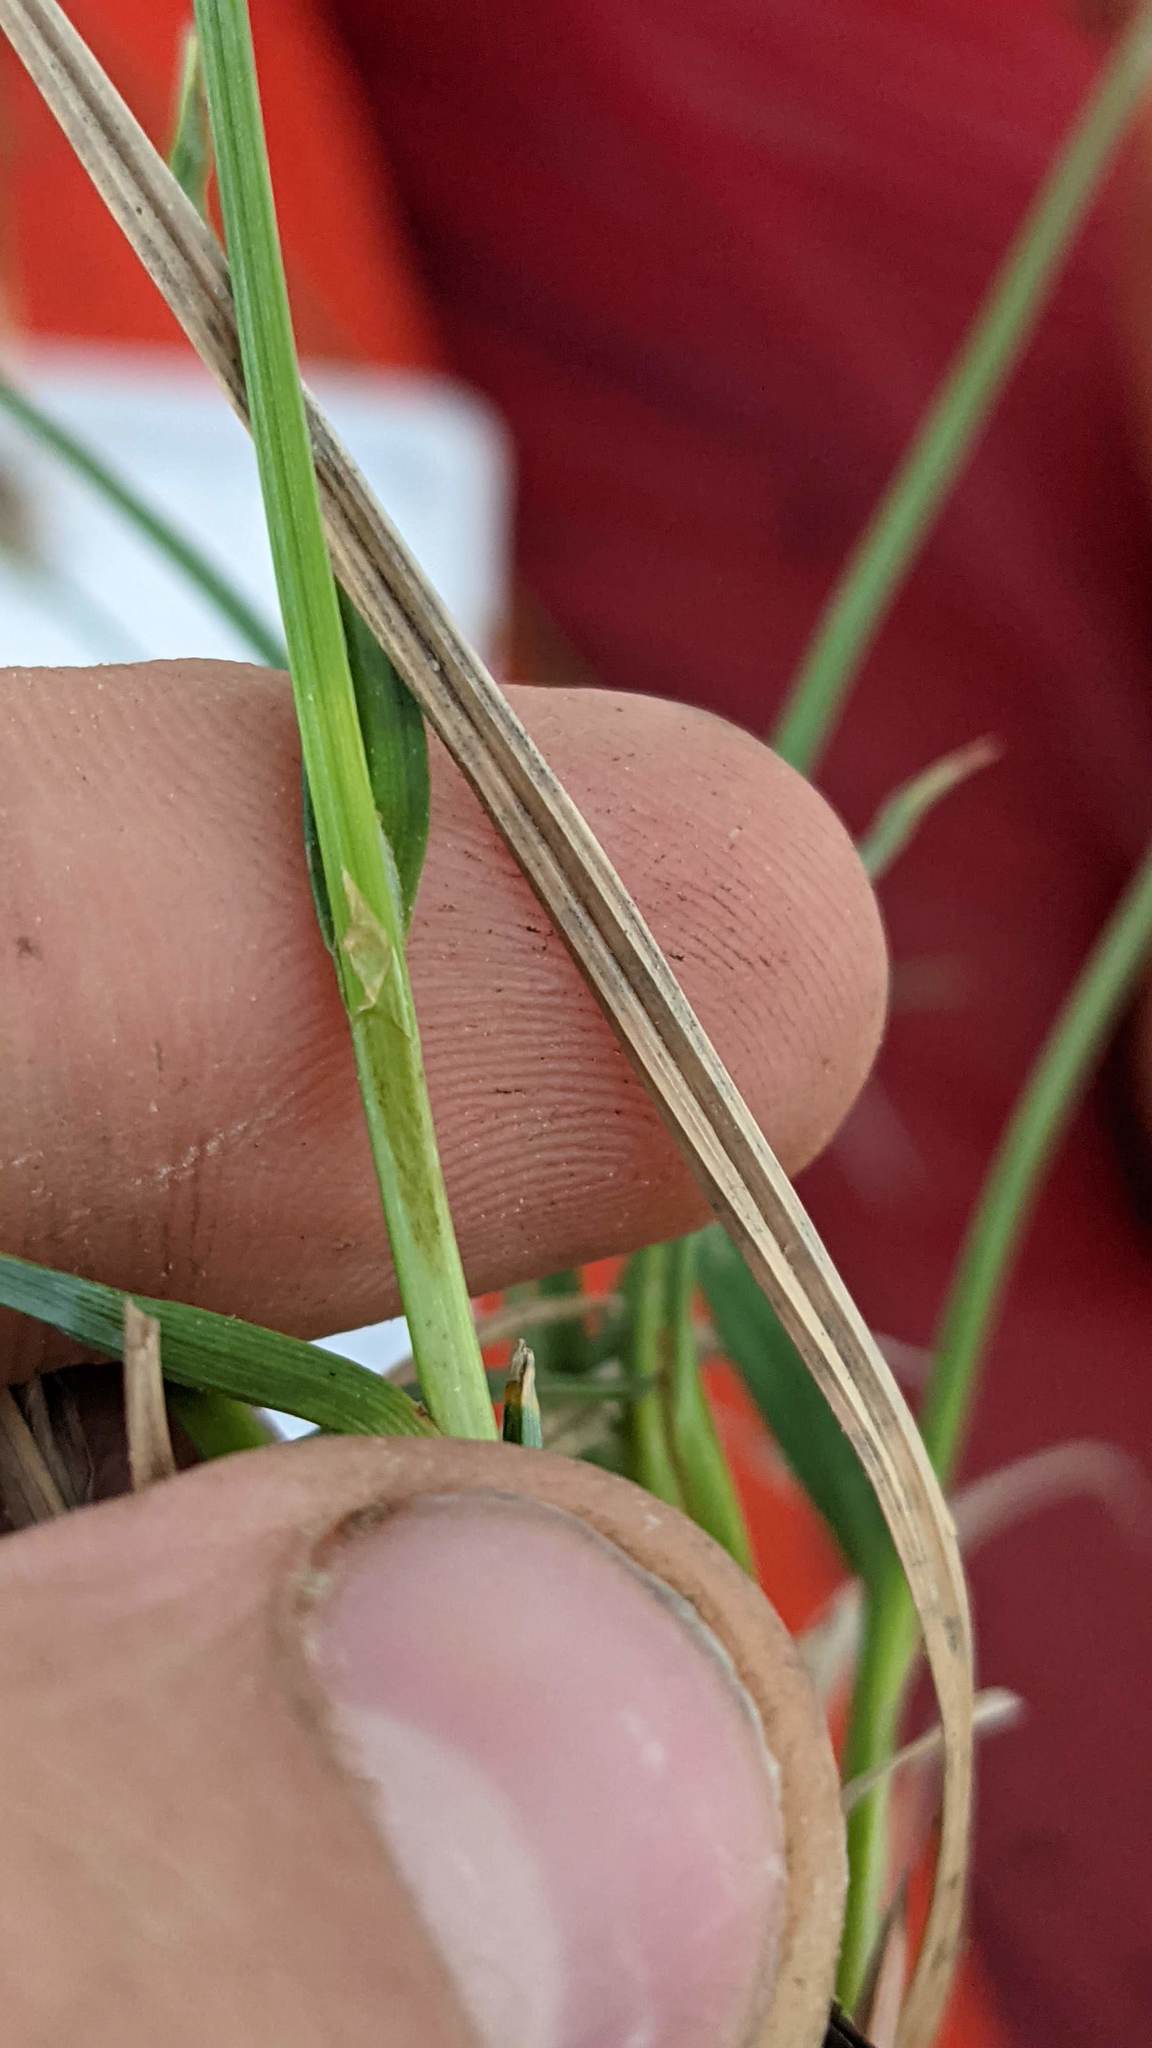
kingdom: Plantae
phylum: Tracheophyta
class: Liliopsida
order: Poales
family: Cyperaceae
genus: Carex
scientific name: Carex spectabilis
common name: Northwestern showy sedge
